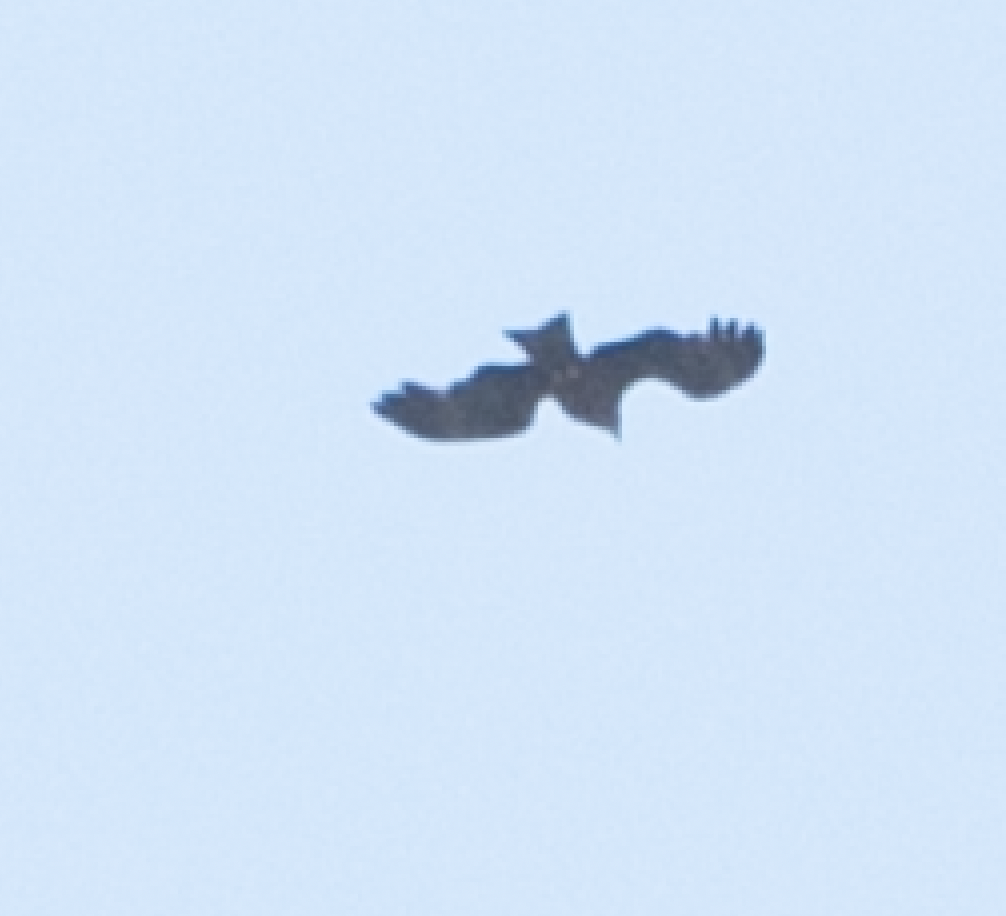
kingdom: Animalia
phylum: Chordata
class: Aves
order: Accipitriformes
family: Accipitridae
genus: Milvus
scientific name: Milvus migrans
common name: Black kite
